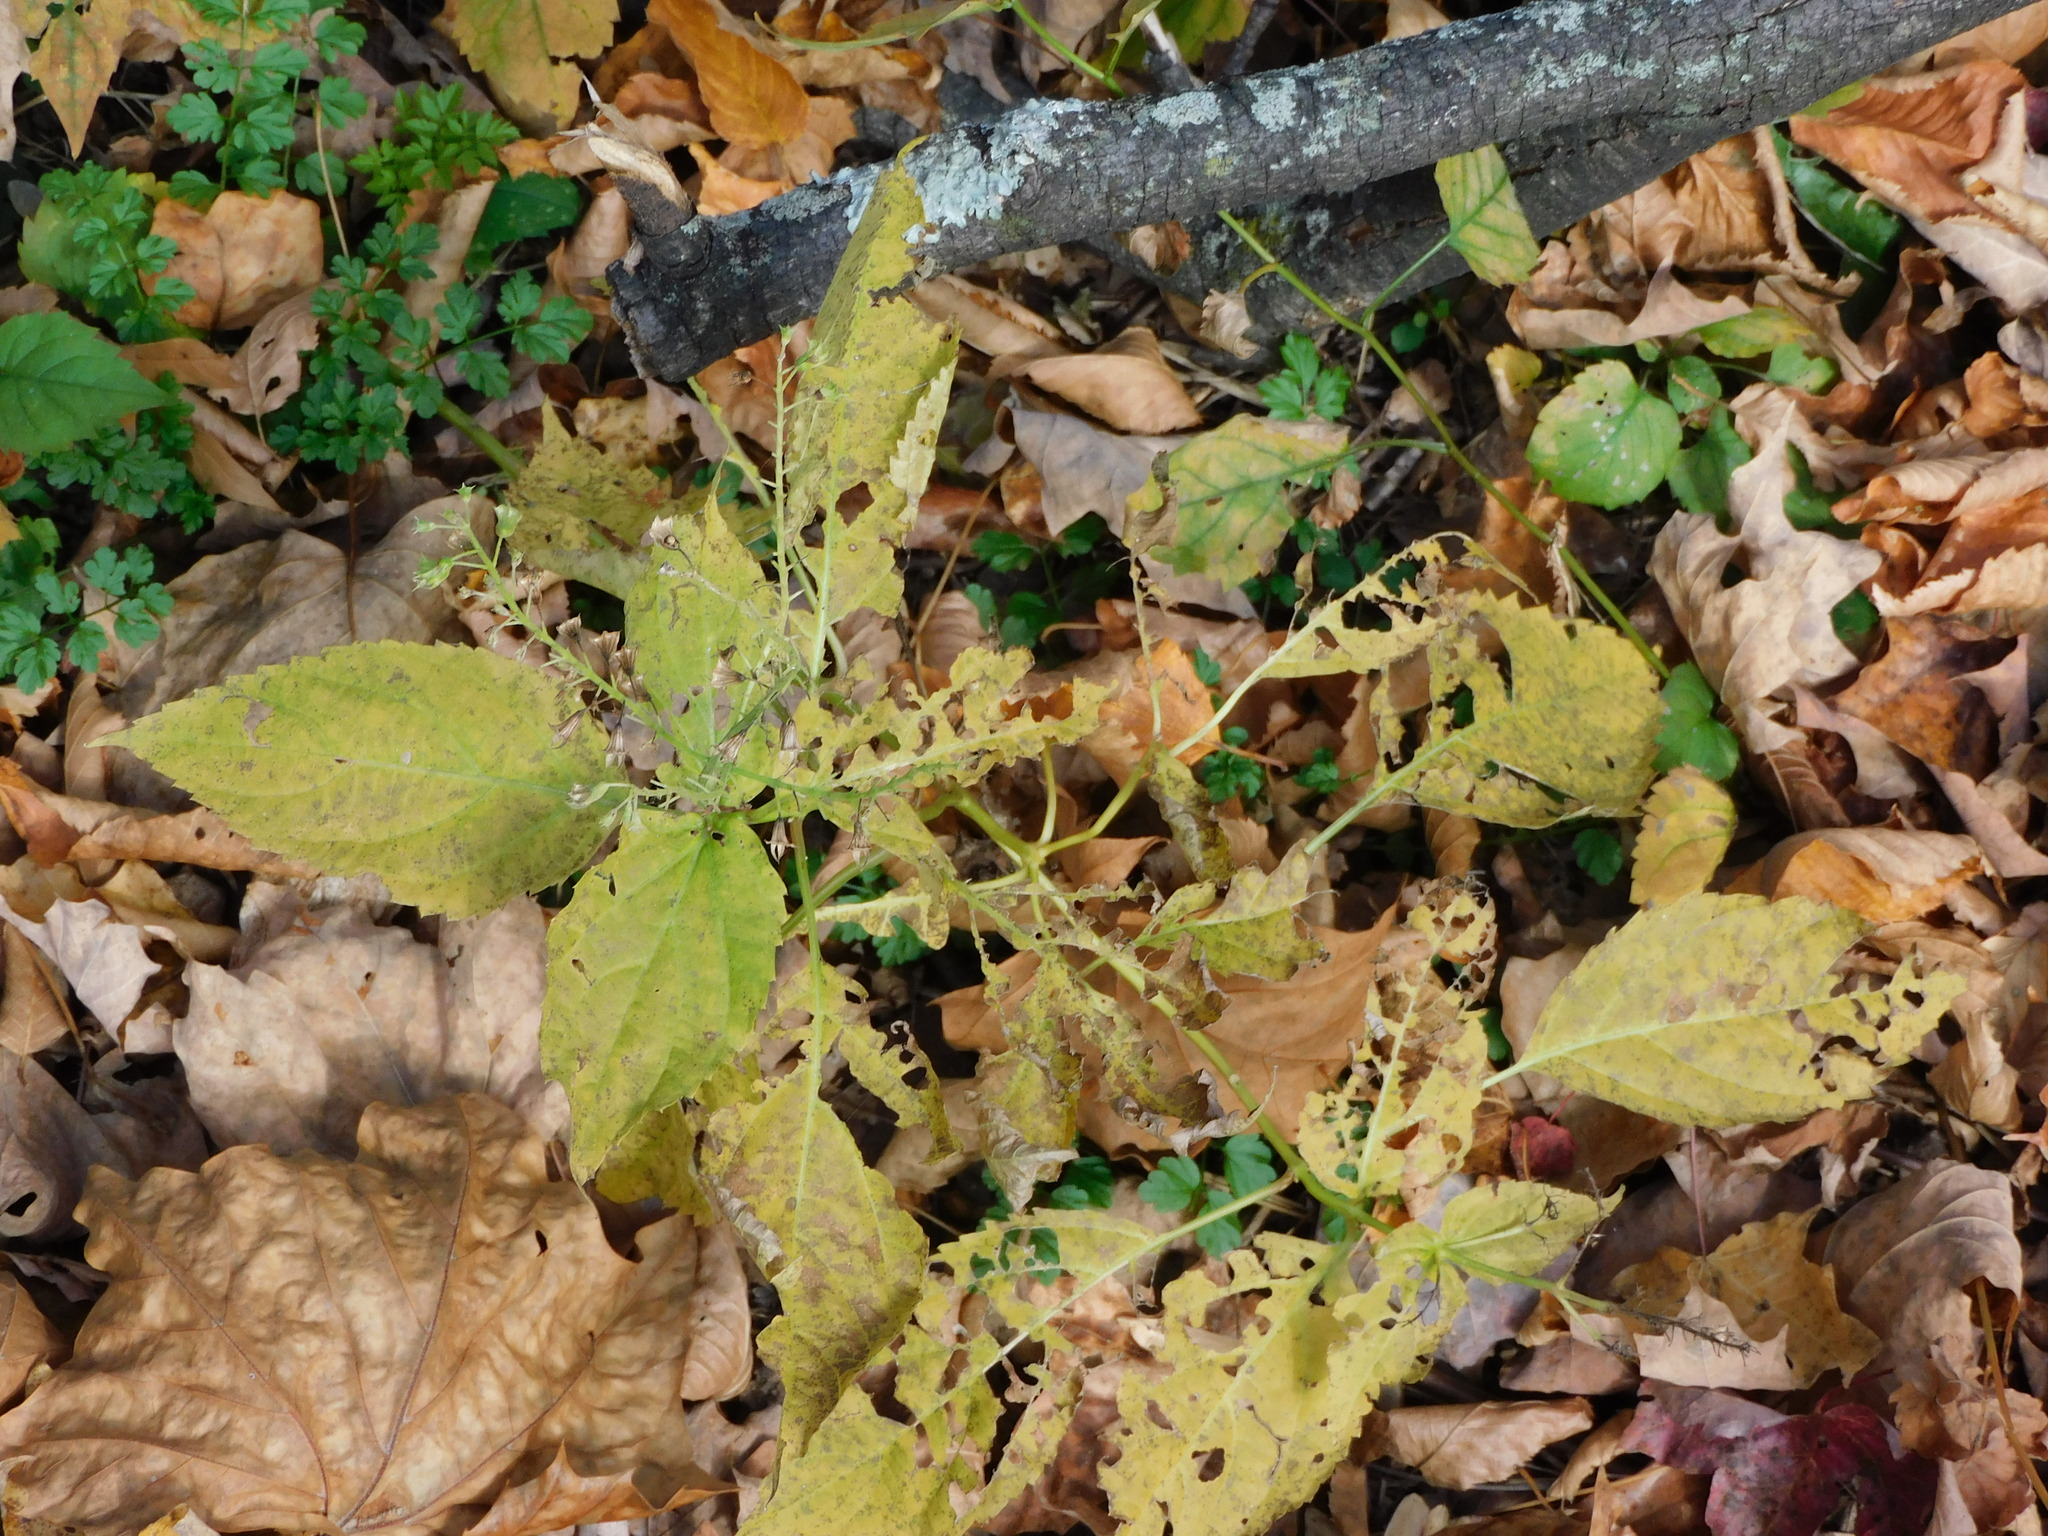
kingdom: Plantae
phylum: Tracheophyta
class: Magnoliopsida
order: Lamiales
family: Lamiaceae
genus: Collinsonia
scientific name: Collinsonia canadensis
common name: Northern horsebalm
